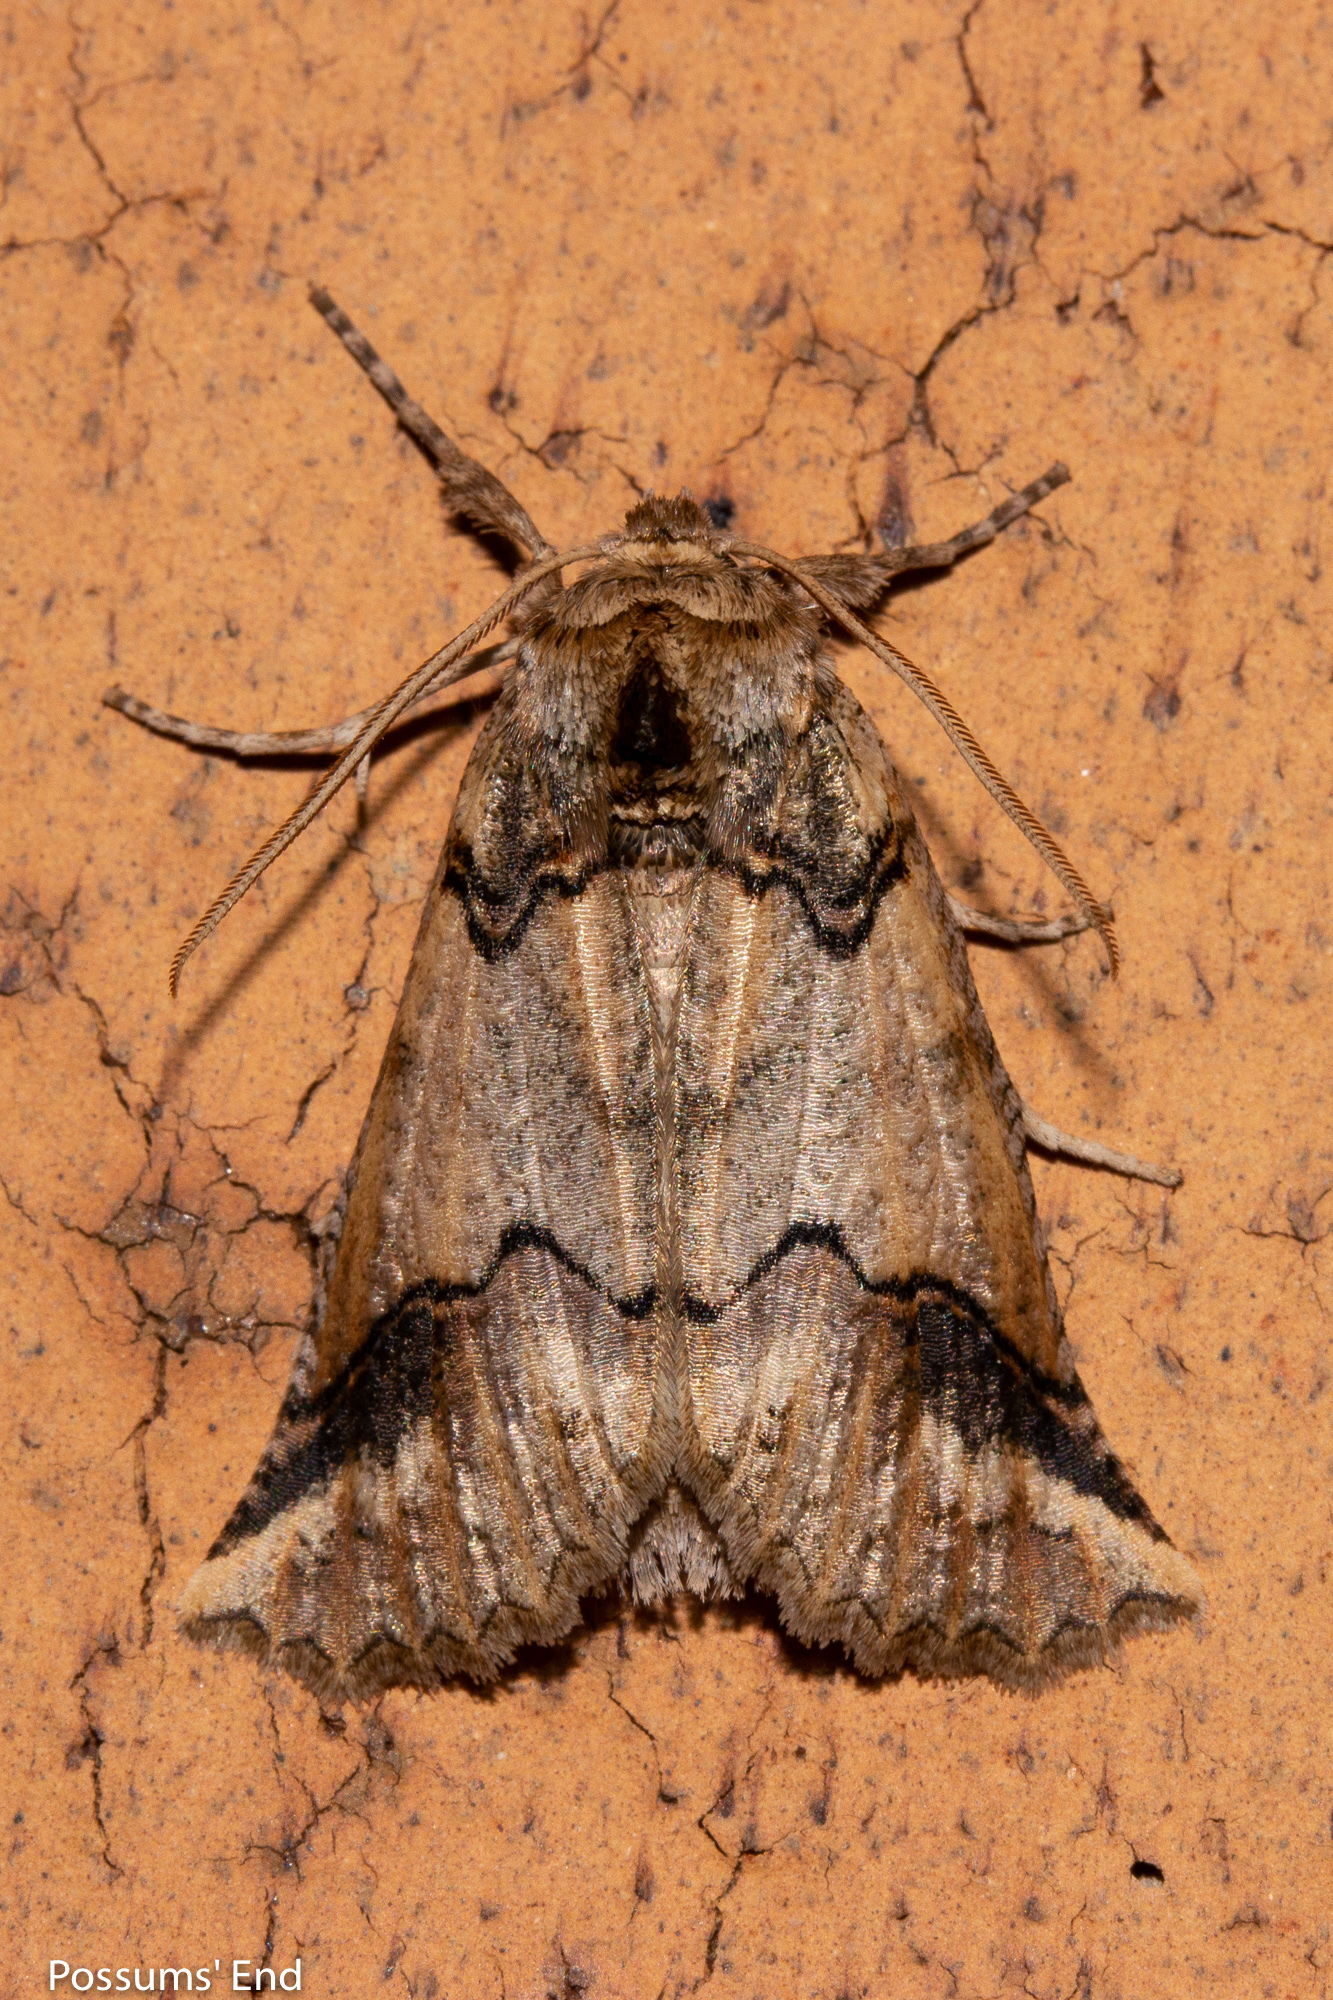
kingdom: Animalia
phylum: Arthropoda
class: Insecta
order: Lepidoptera
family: Geometridae
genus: Declana
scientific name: Declana
